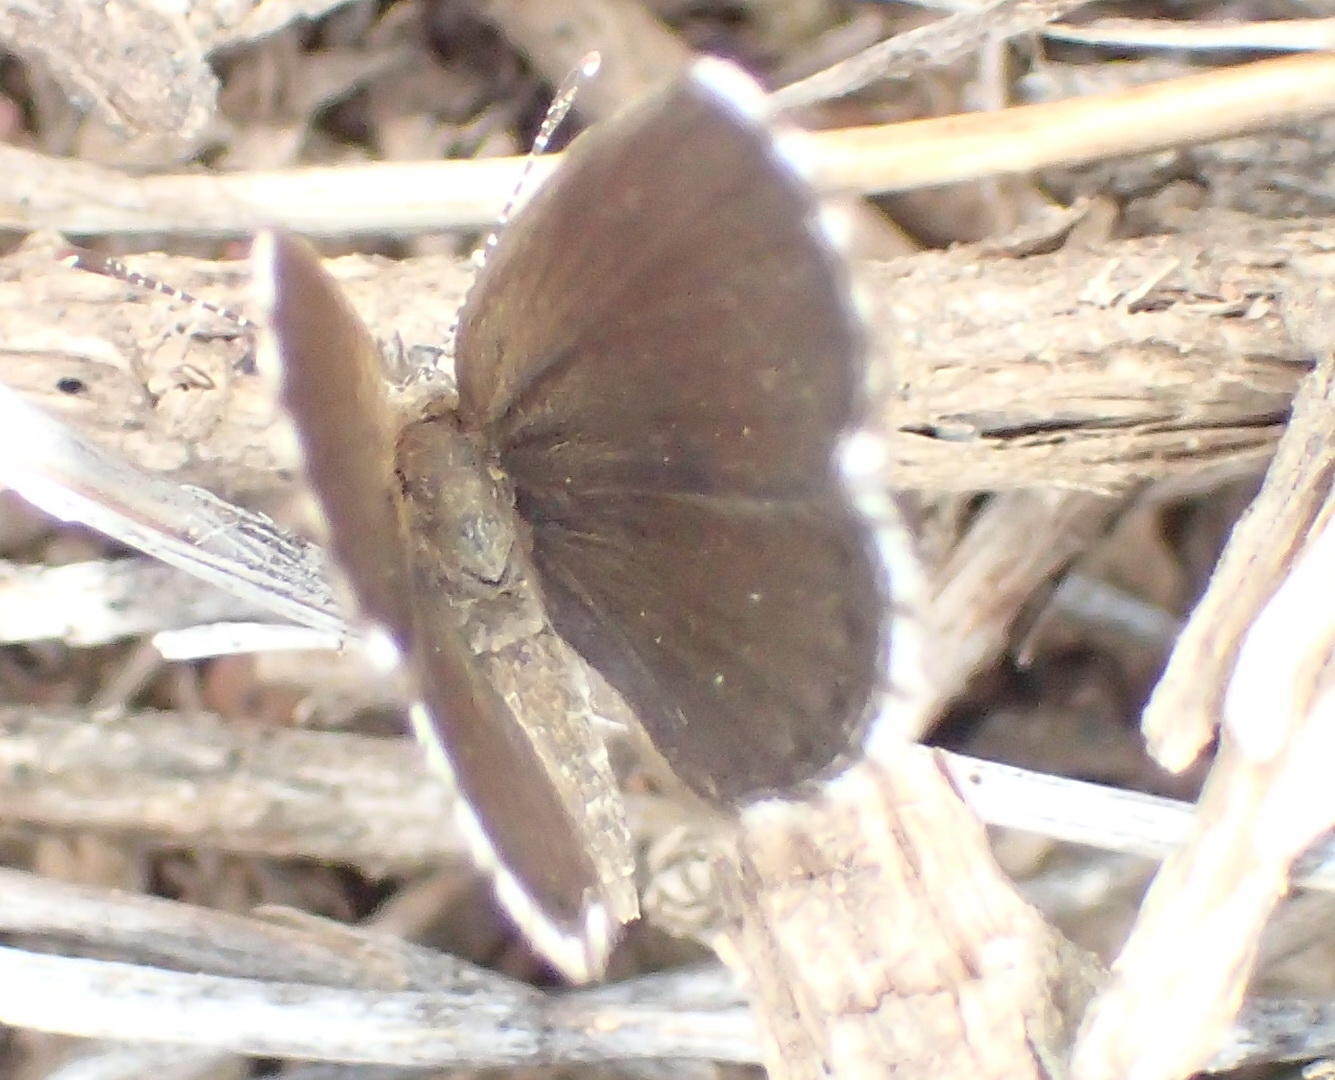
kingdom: Animalia
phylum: Arthropoda
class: Insecta
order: Lepidoptera
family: Lycaenidae
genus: Oraidium
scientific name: Oraidium barberae
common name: Dwarf blue
